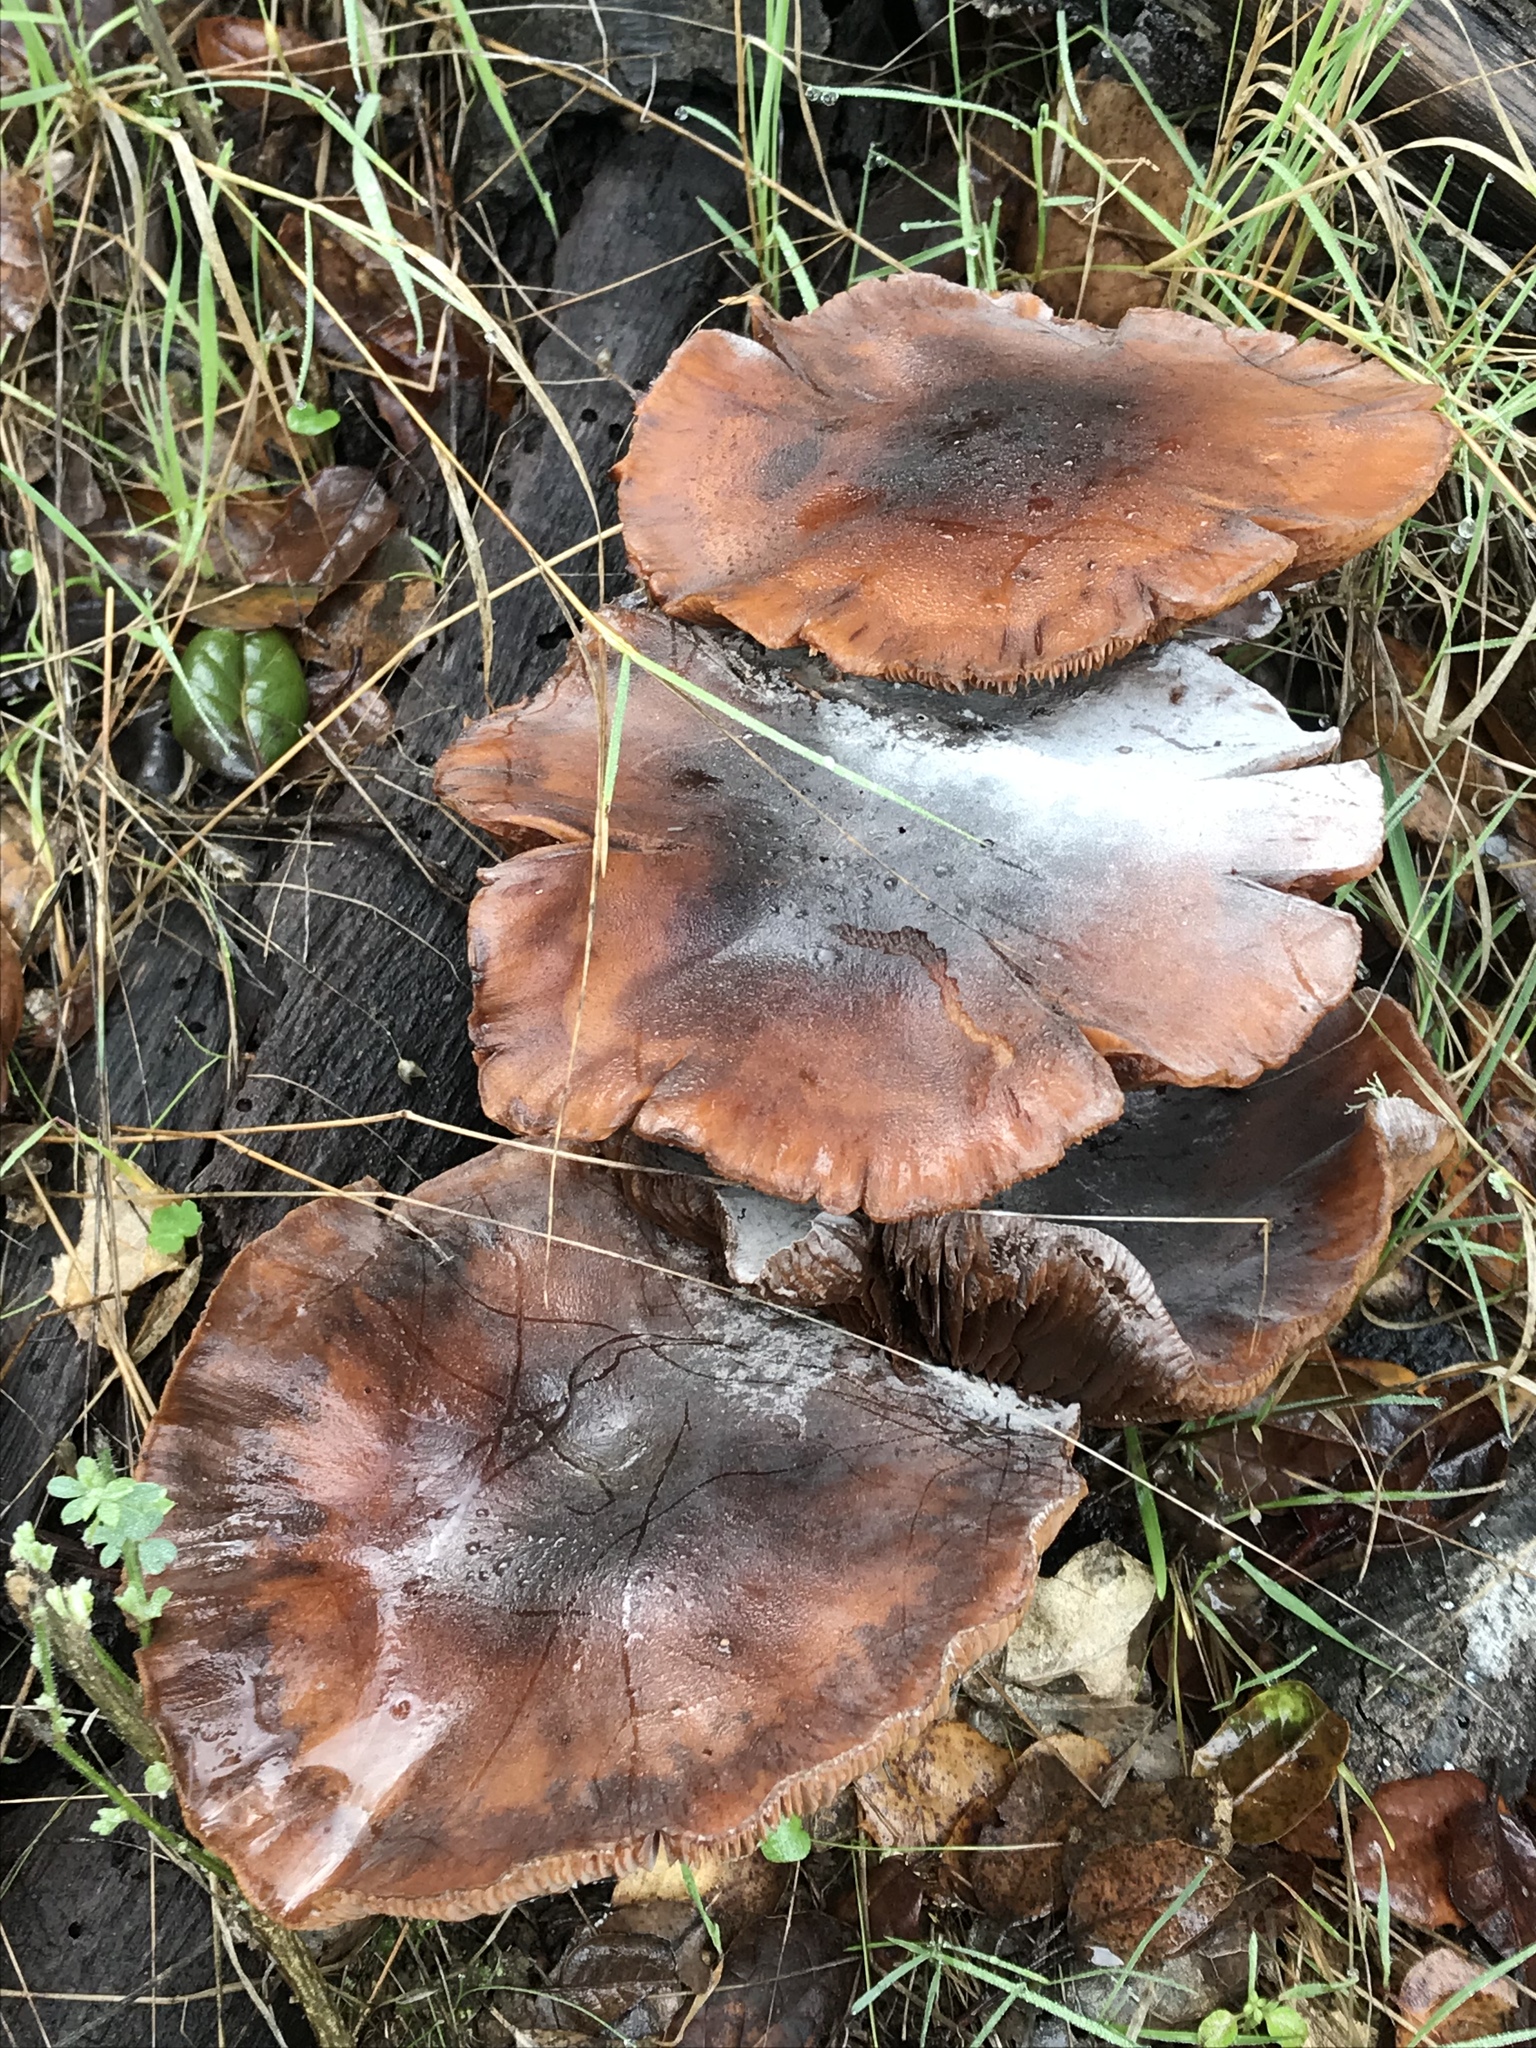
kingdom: Fungi
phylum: Basidiomycota
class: Agaricomycetes
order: Agaricales
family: Physalacriaceae
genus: Armillaria
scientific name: Armillaria mellea
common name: Honey fungus
